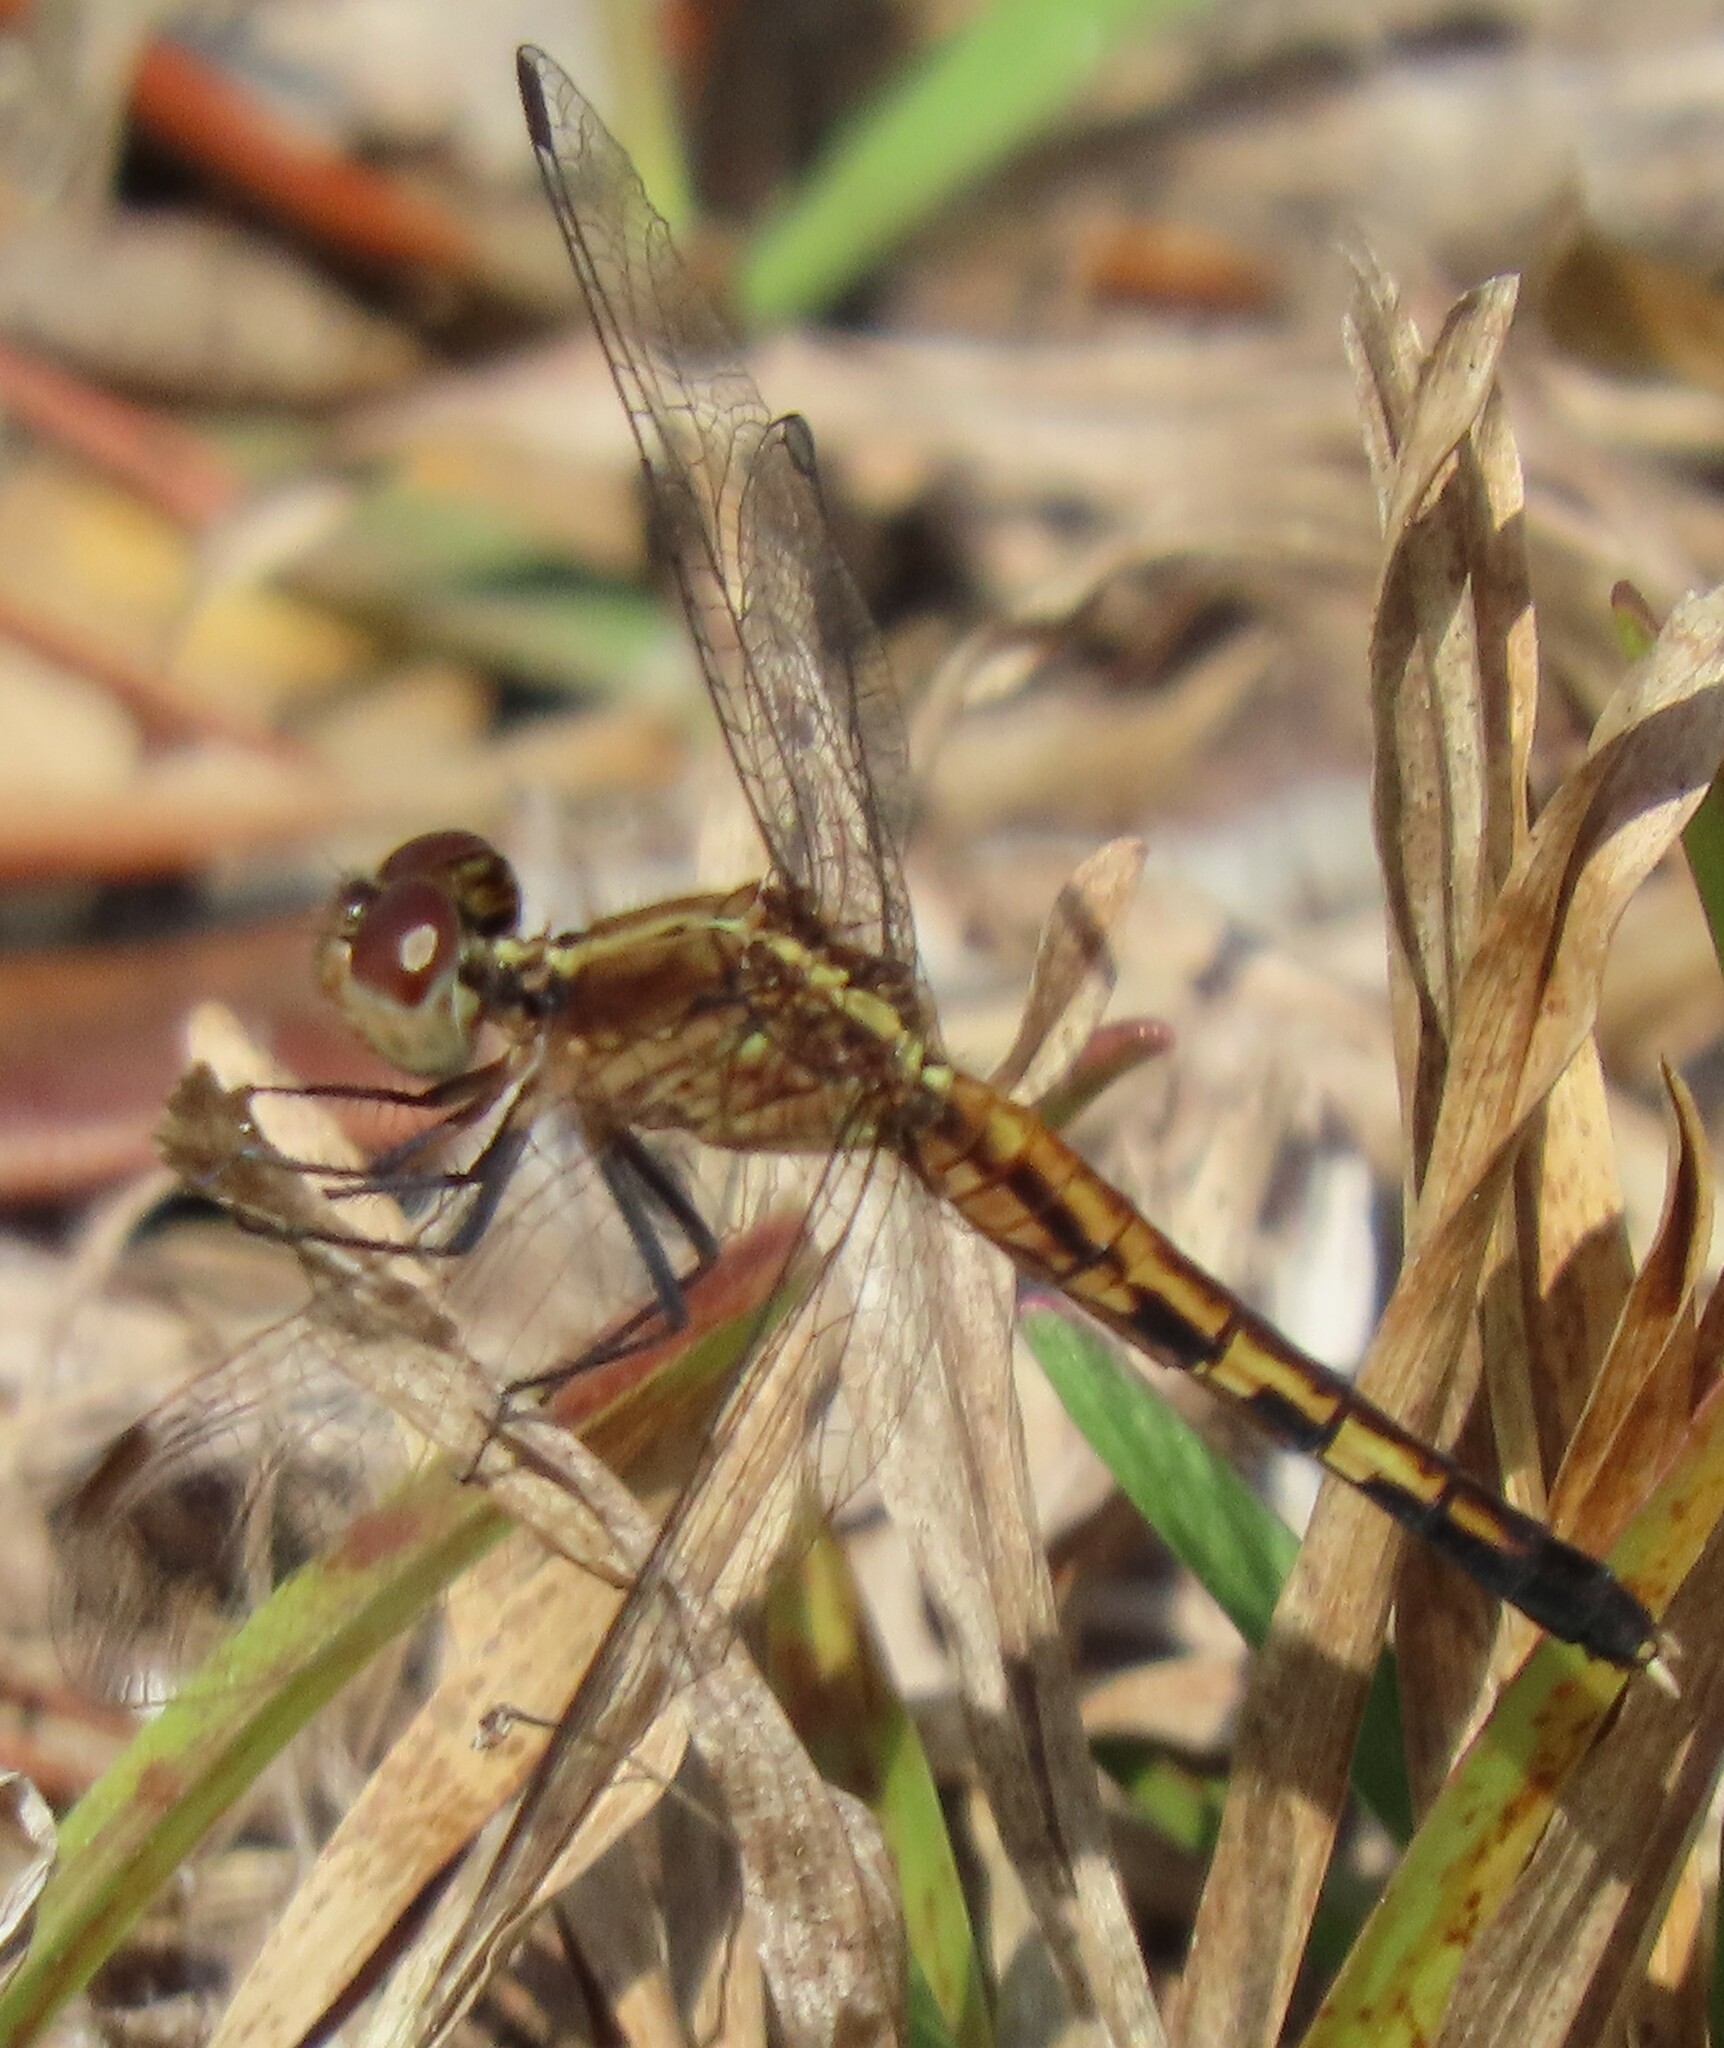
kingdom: Animalia
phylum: Arthropoda
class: Insecta
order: Odonata
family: Libellulidae
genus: Erythrodiplax
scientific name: Erythrodiplax minuscula
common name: Little blue dragonlet
